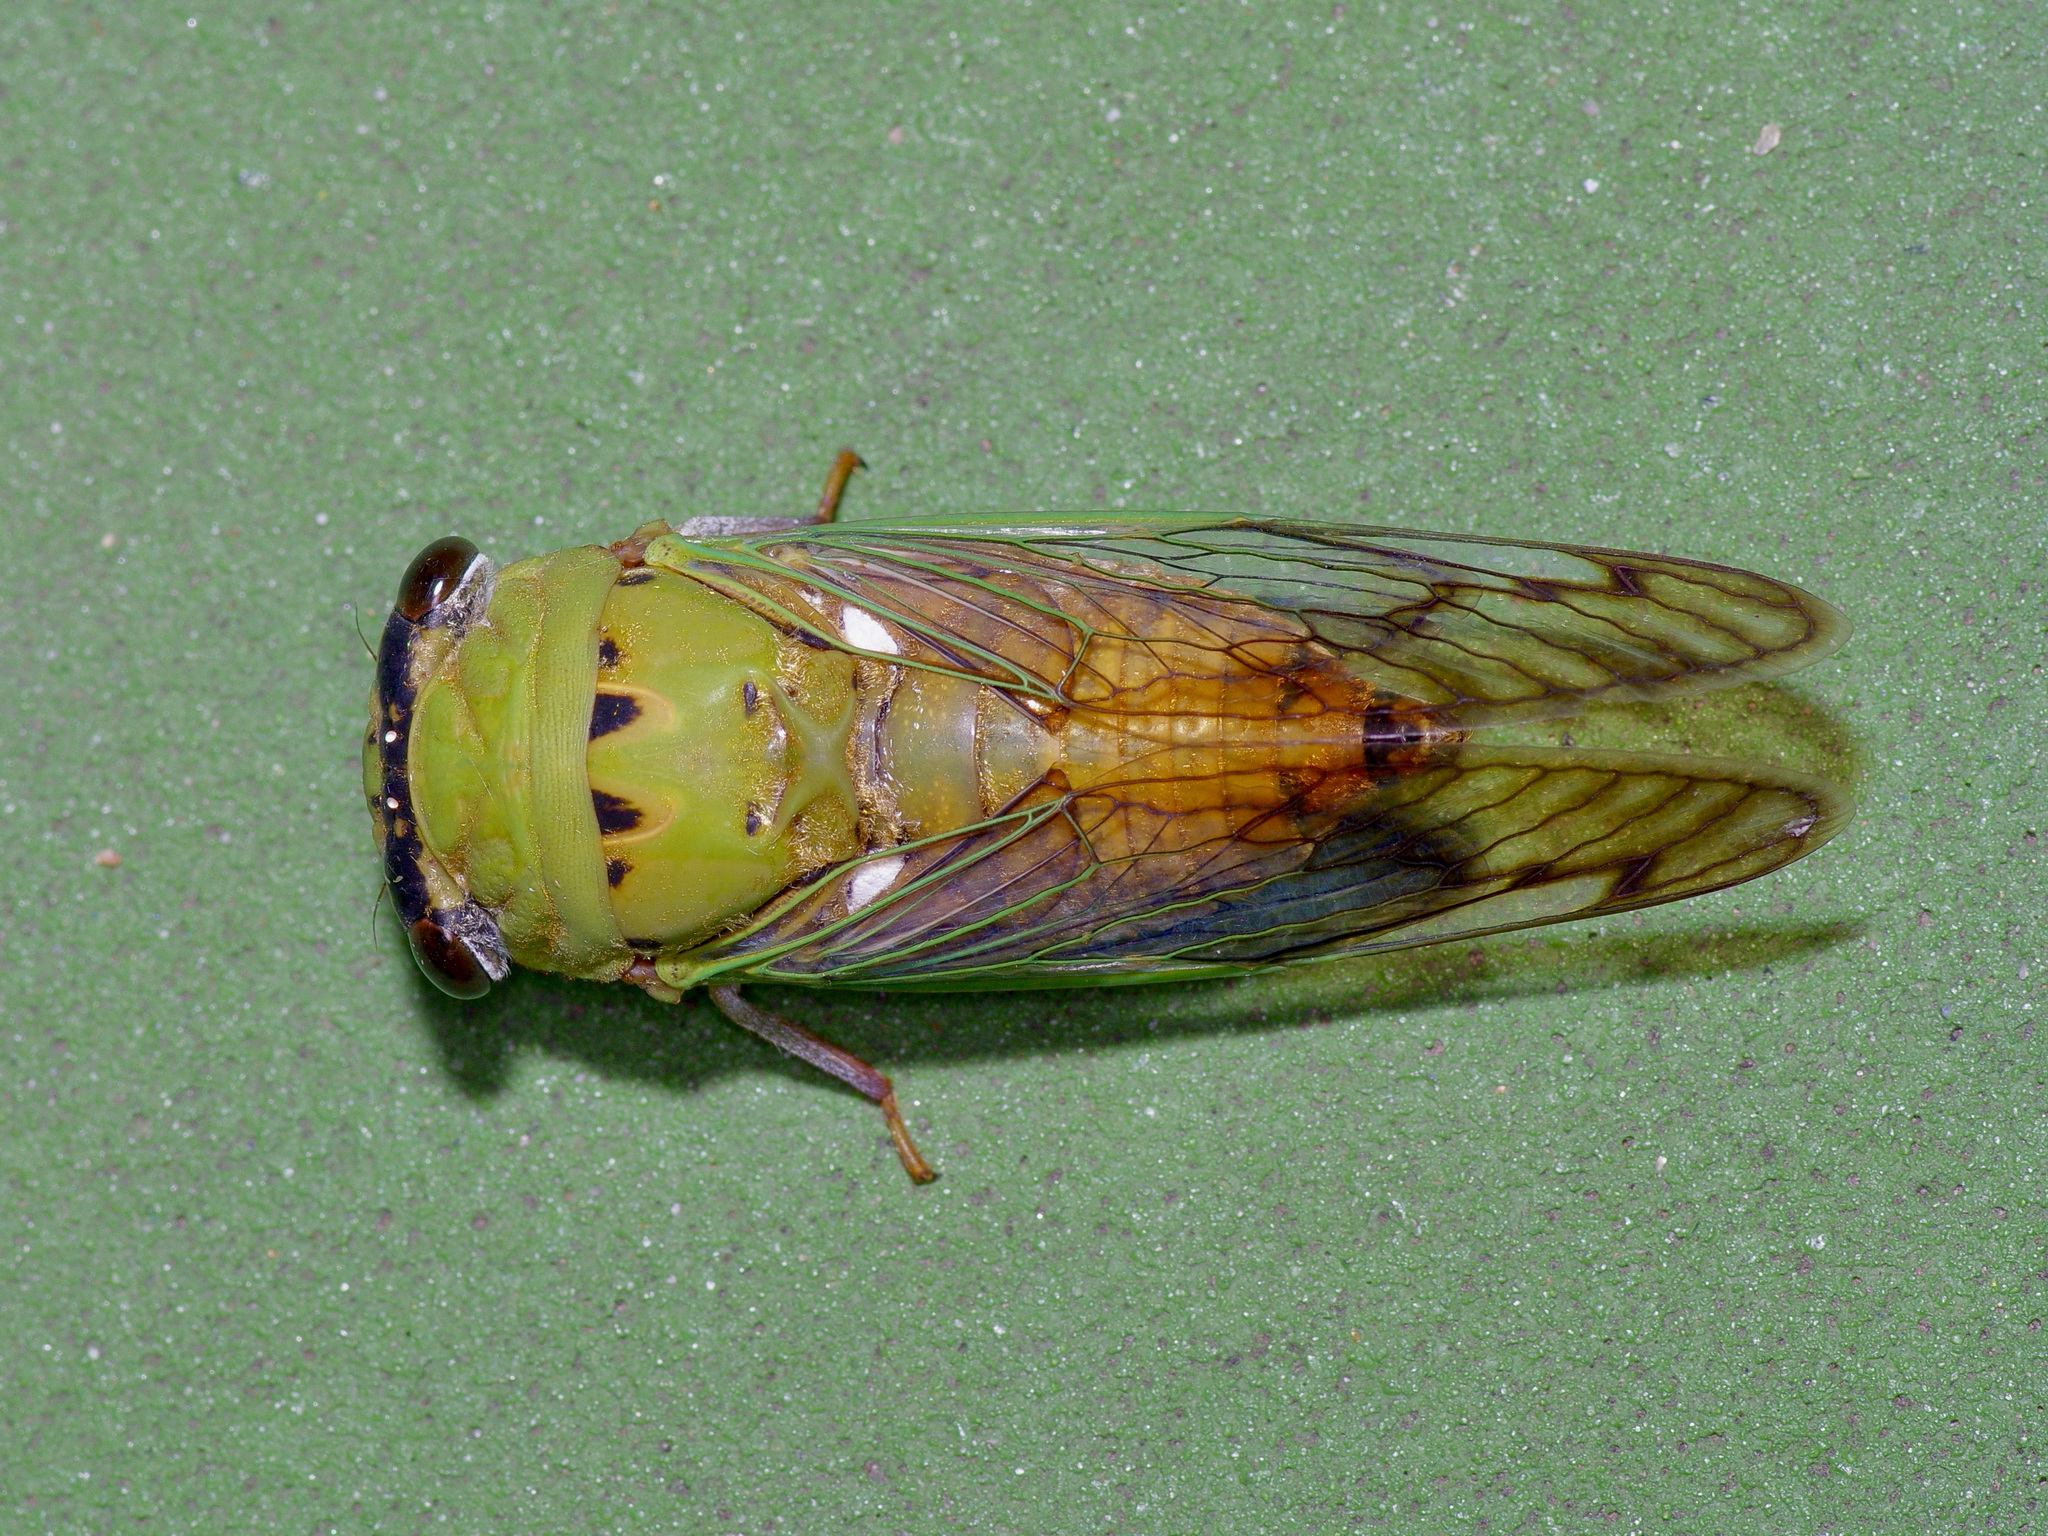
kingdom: Animalia
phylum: Arthropoda
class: Insecta
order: Hemiptera
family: Cicadidae
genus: Neotibicen
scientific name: Neotibicen superbus
